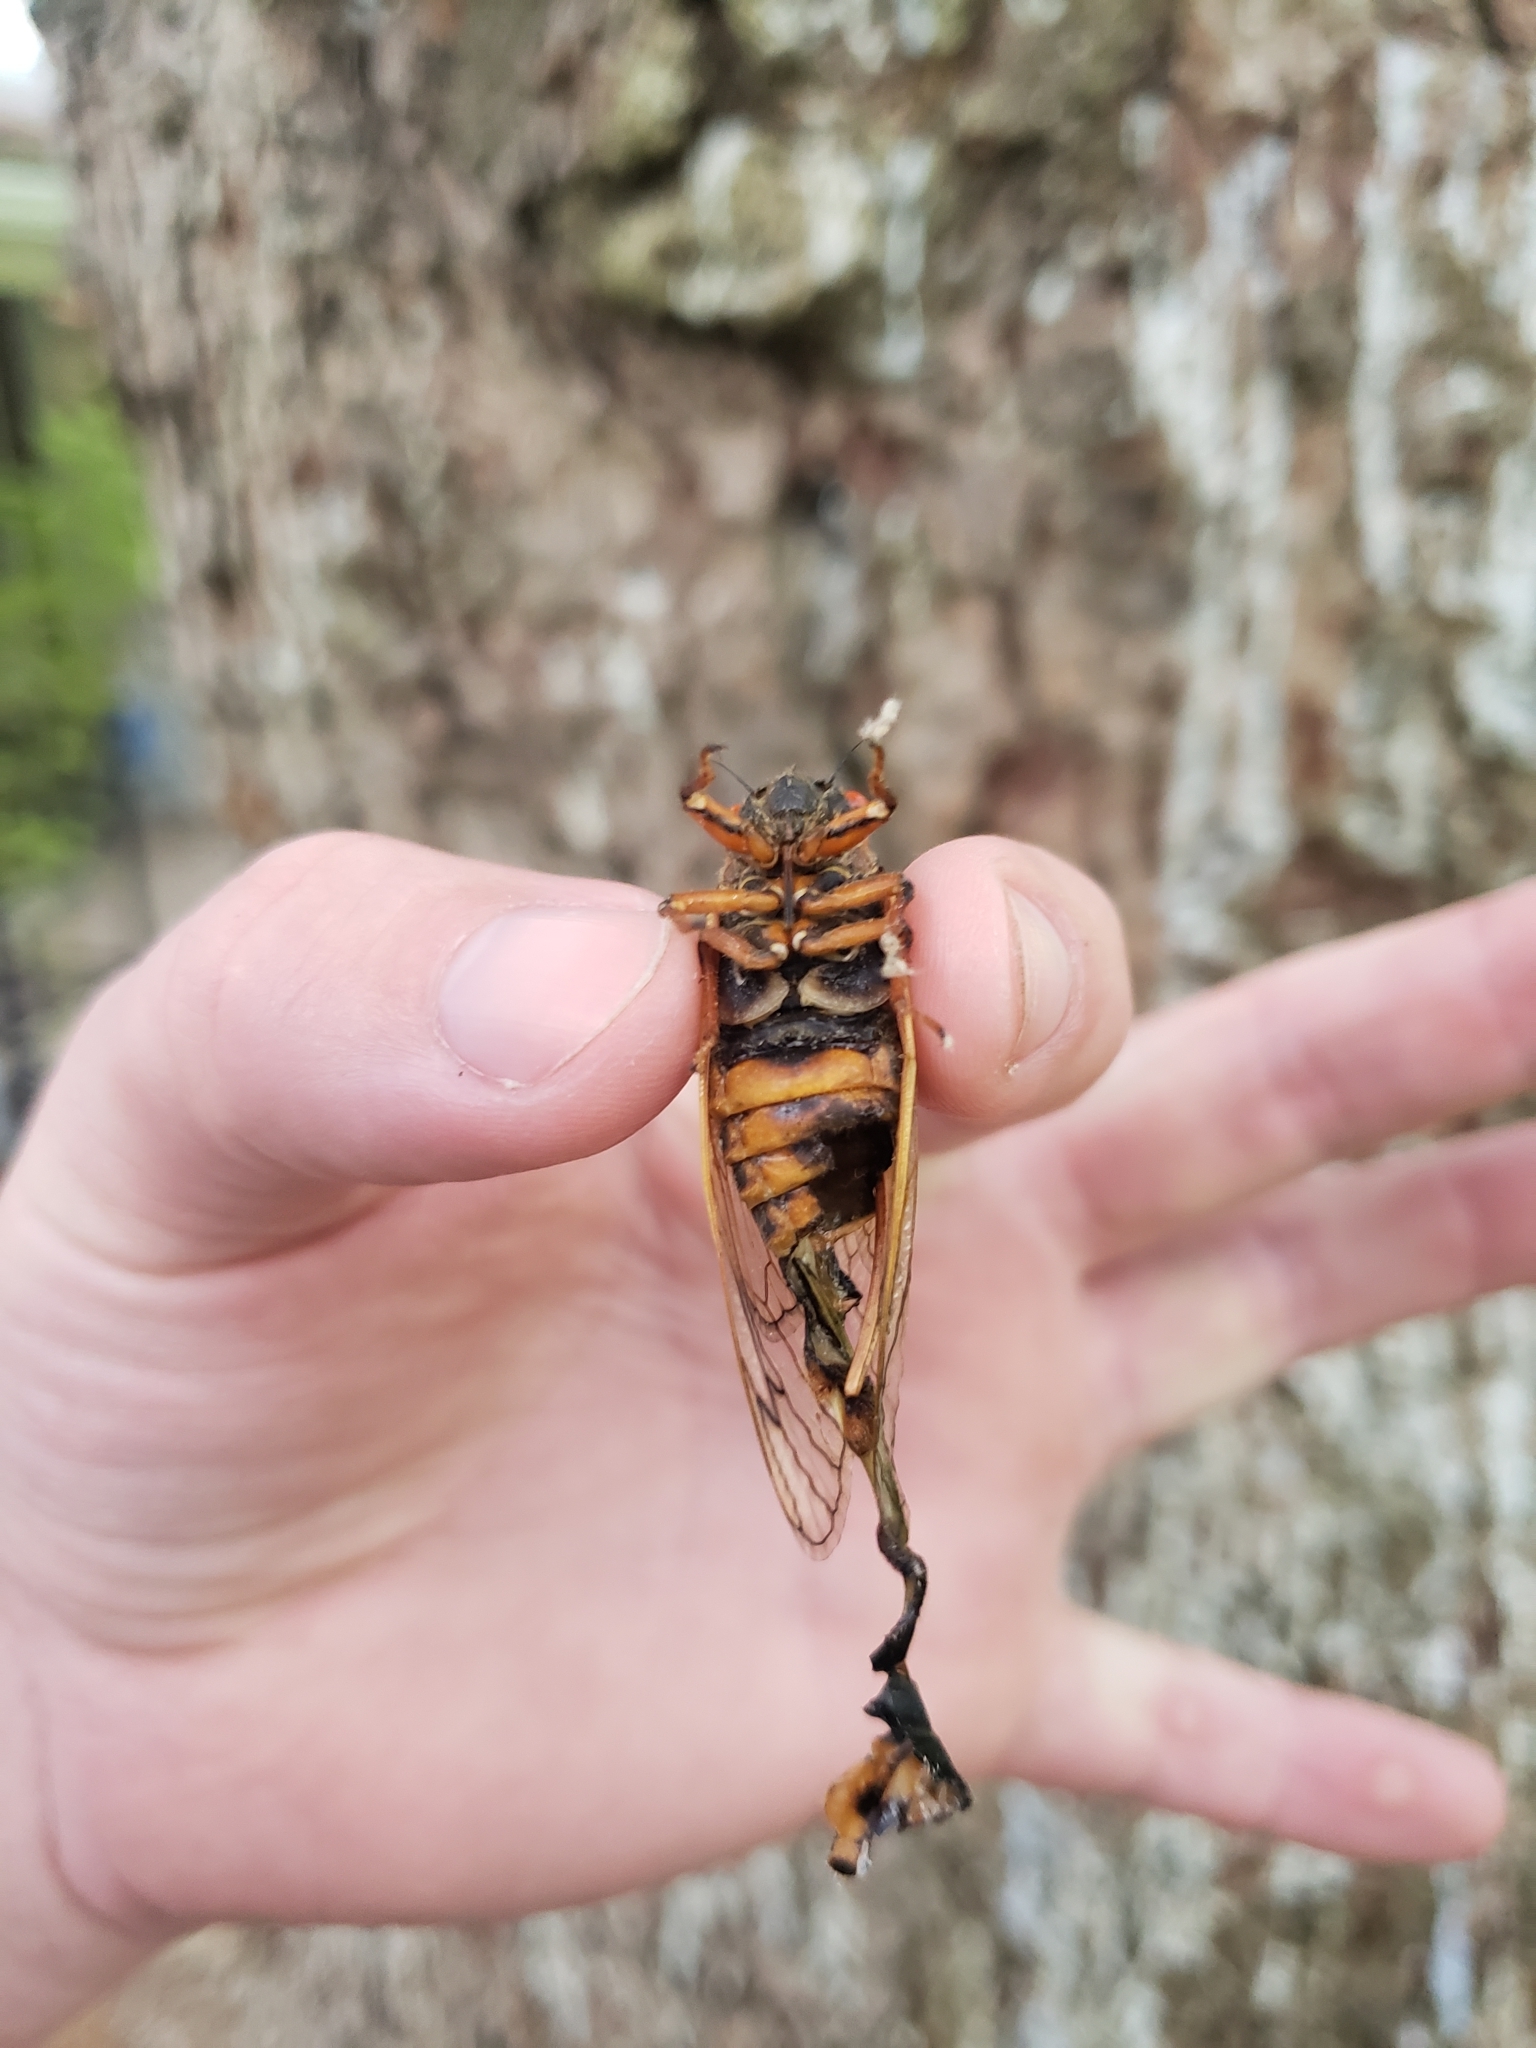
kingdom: Animalia
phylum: Arthropoda
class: Insecta
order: Hemiptera
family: Cicadidae
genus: Magicicada
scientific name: Magicicada septendecim
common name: Periodical cicada
